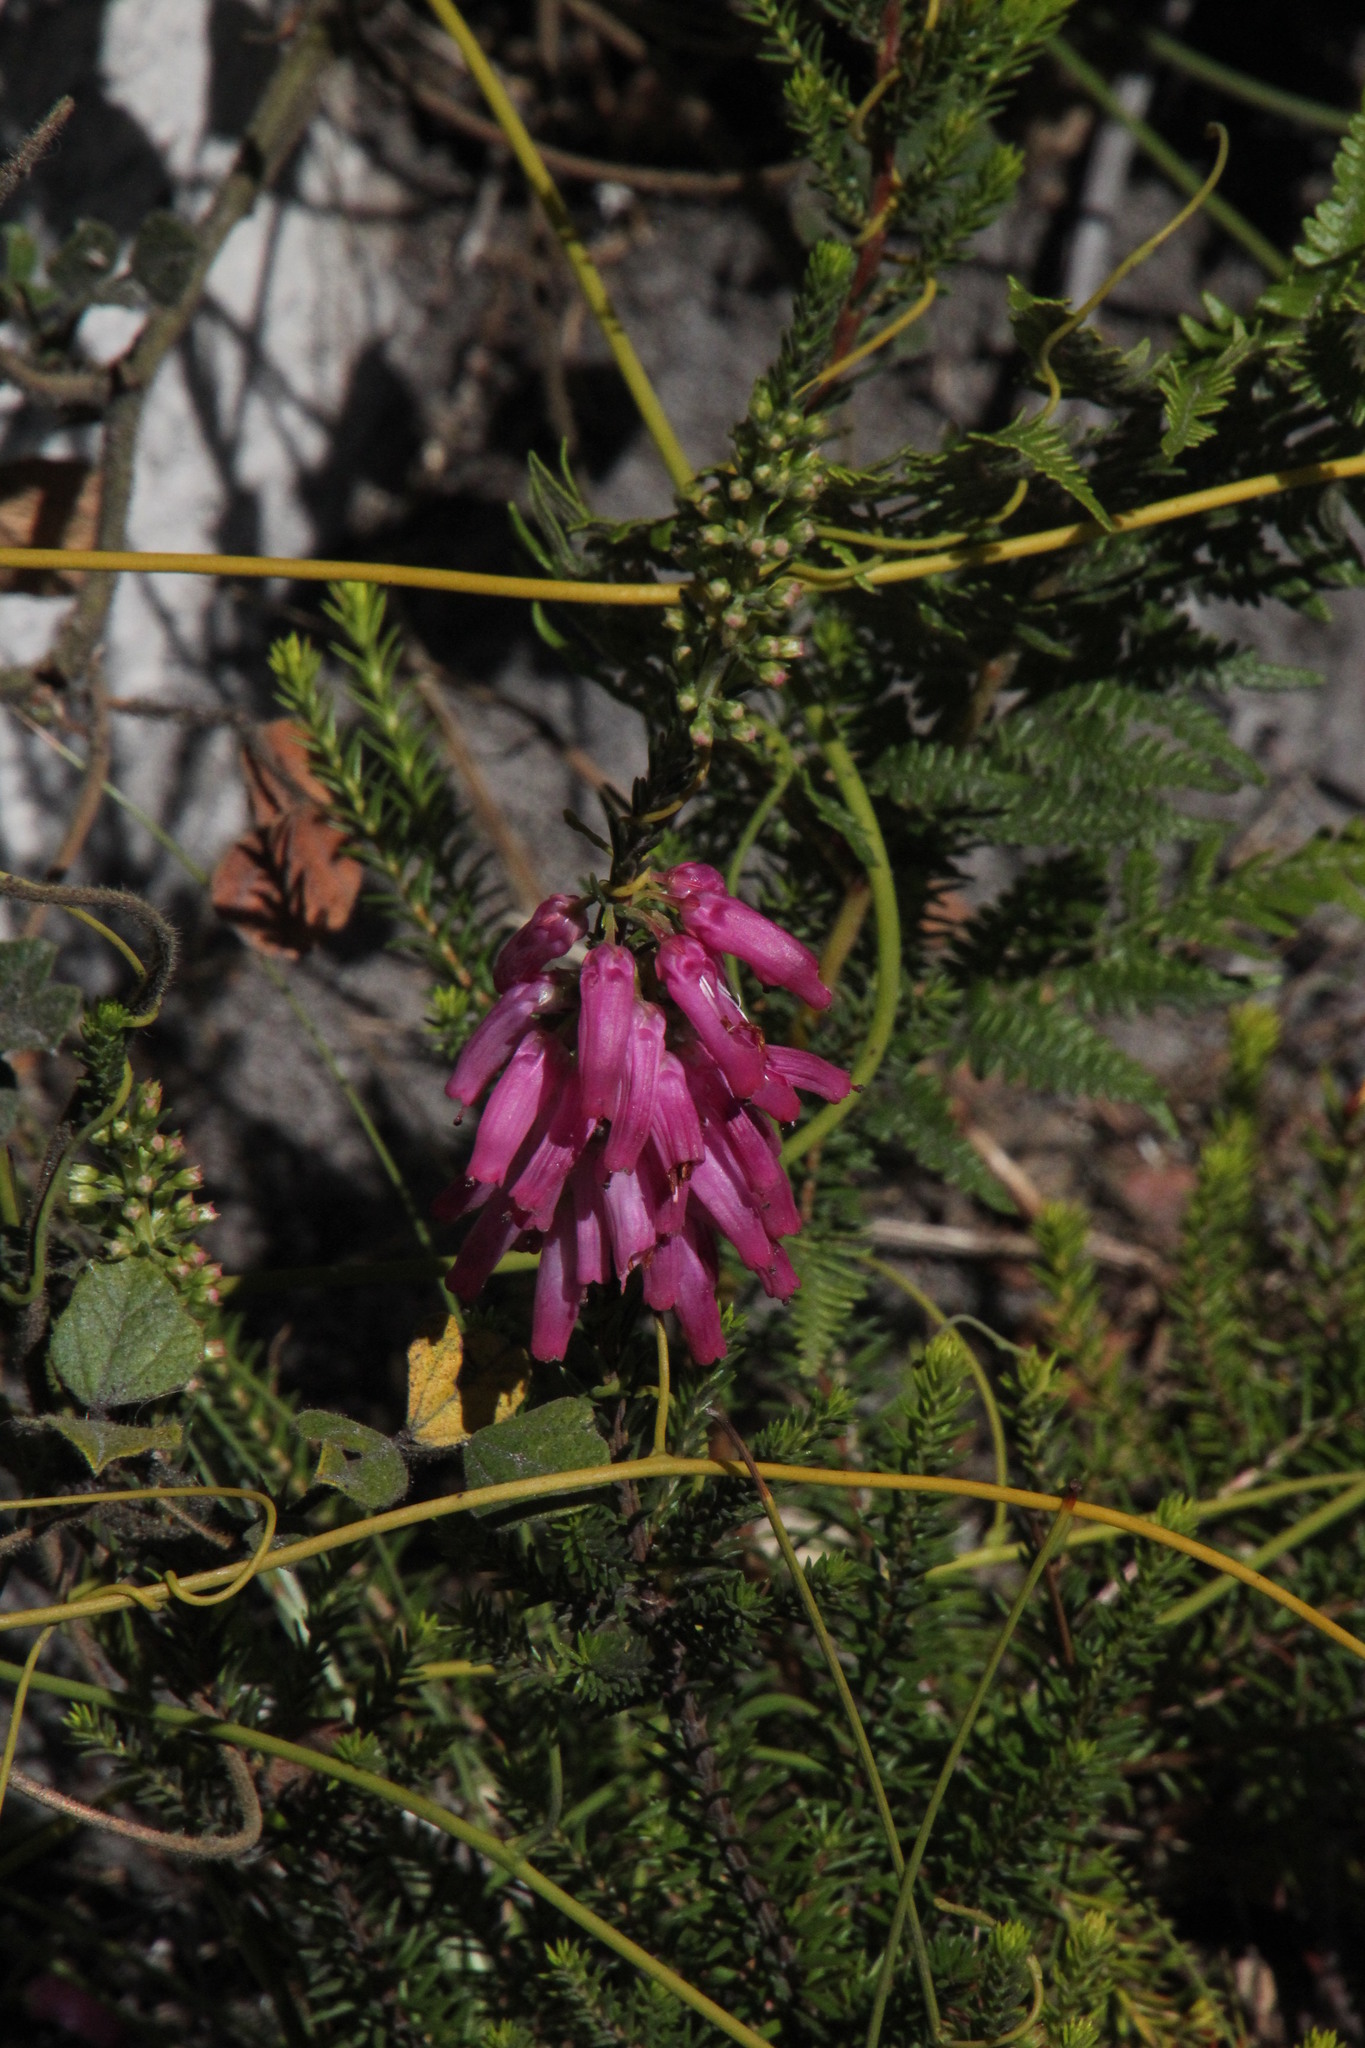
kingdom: Plantae
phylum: Tracheophyta
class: Magnoliopsida
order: Ericales
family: Ericaceae
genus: Erica
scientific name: Erica mammosa
